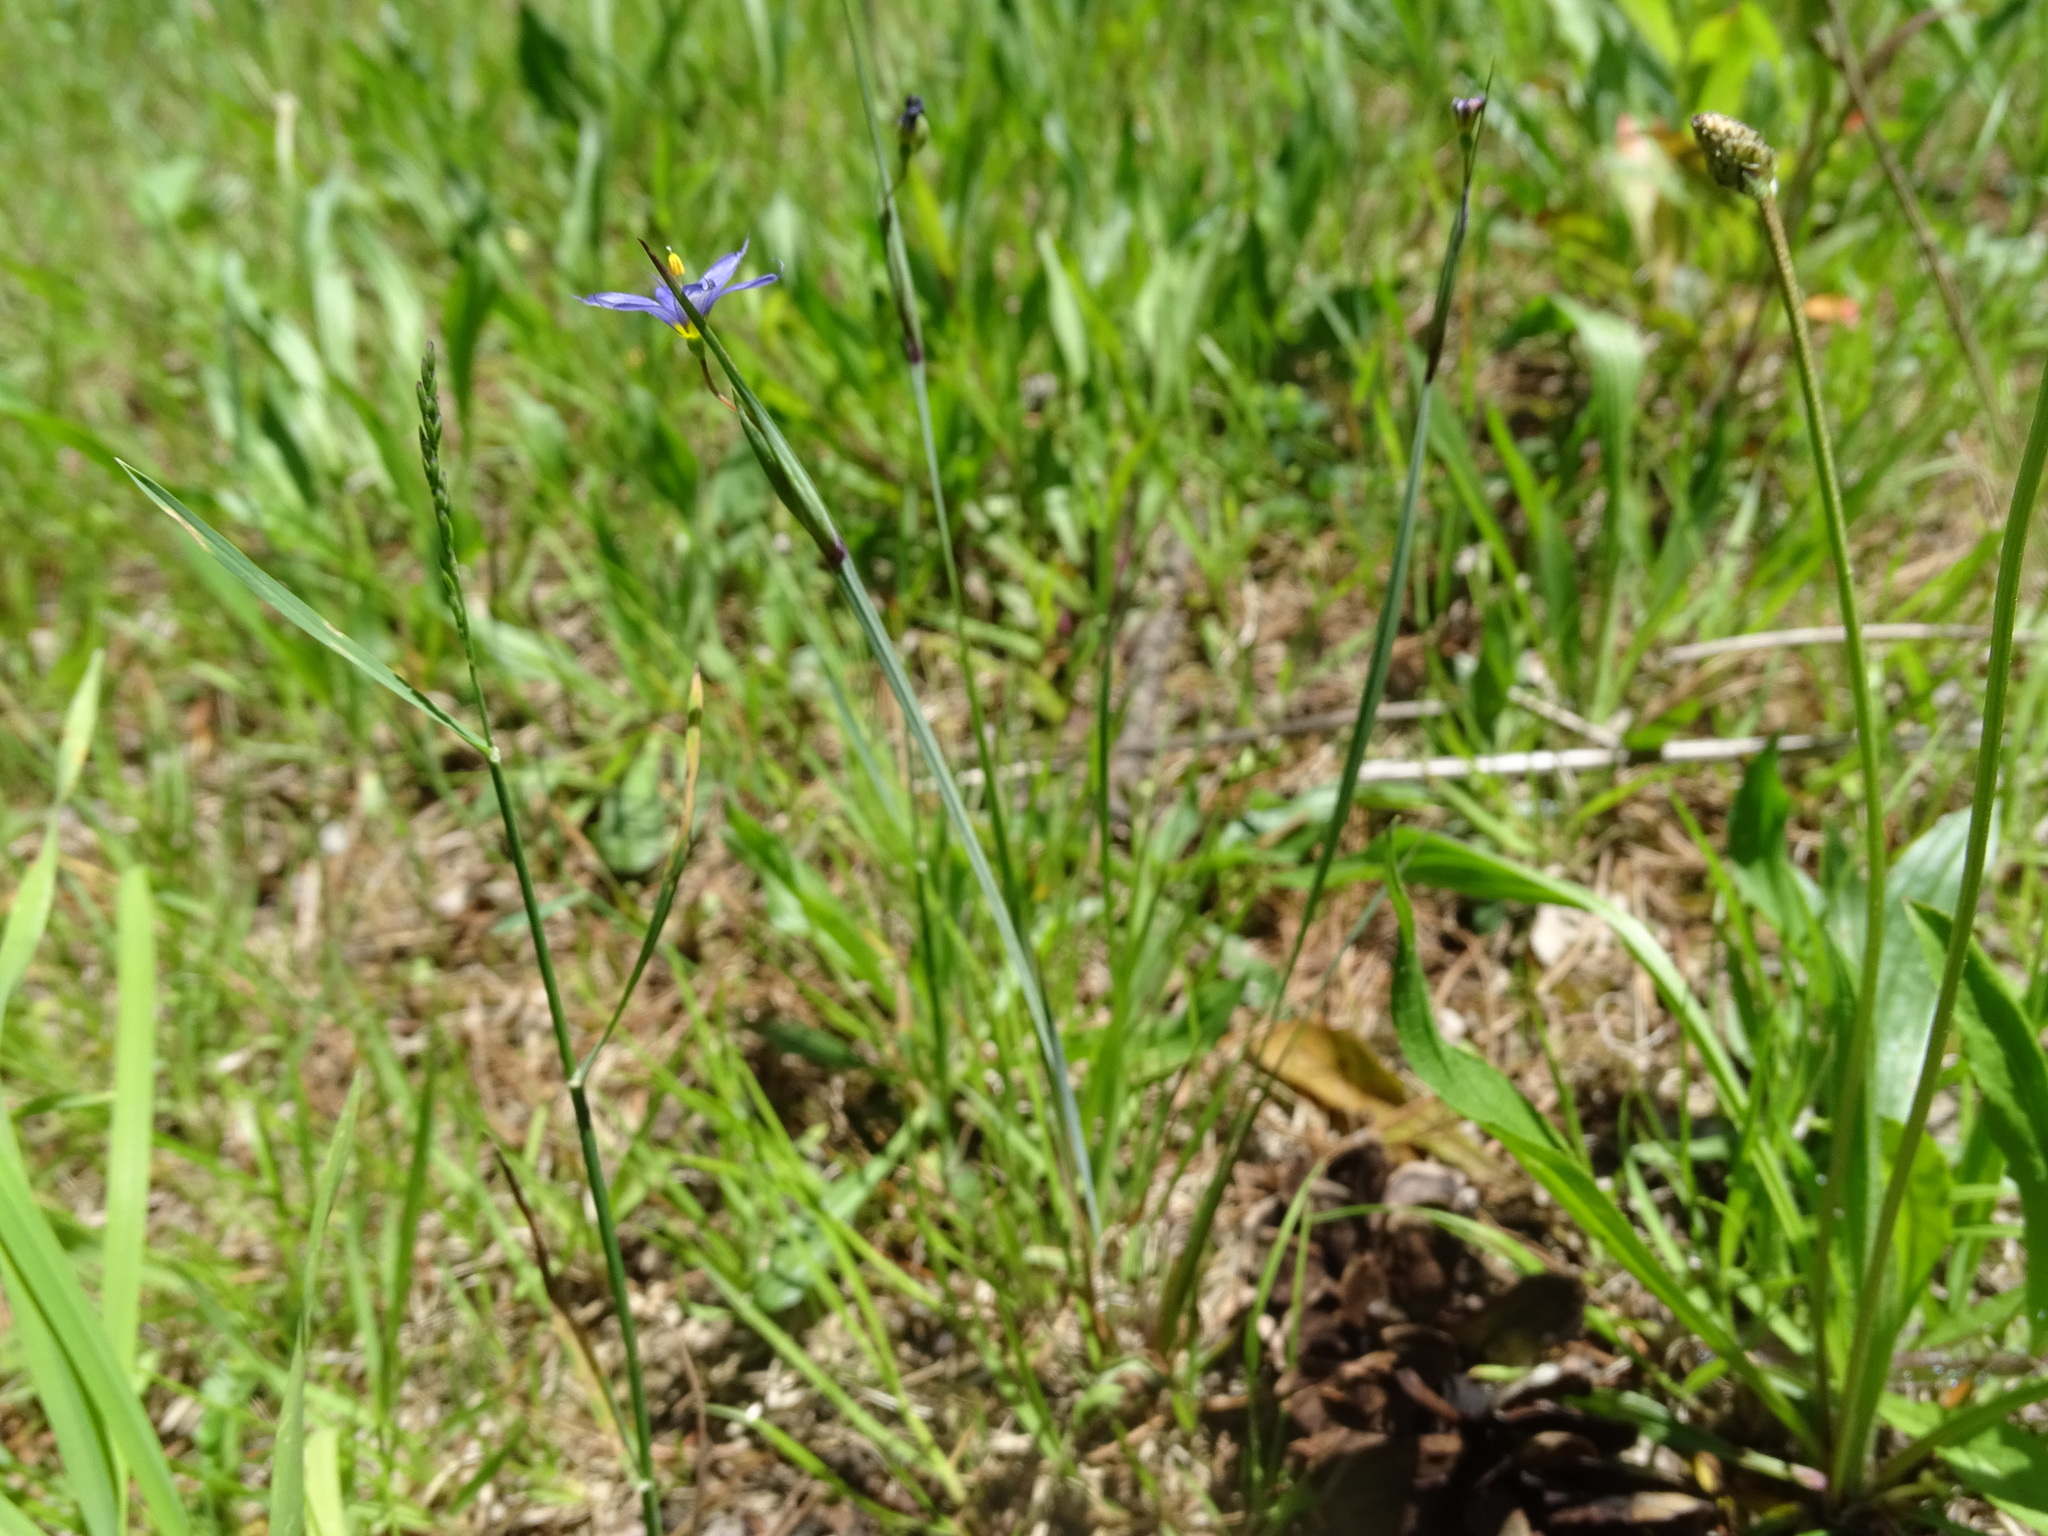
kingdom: Plantae
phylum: Tracheophyta
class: Liliopsida
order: Asparagales
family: Iridaceae
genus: Sisyrinchium
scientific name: Sisyrinchium montanum
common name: American blue-eyed-grass
